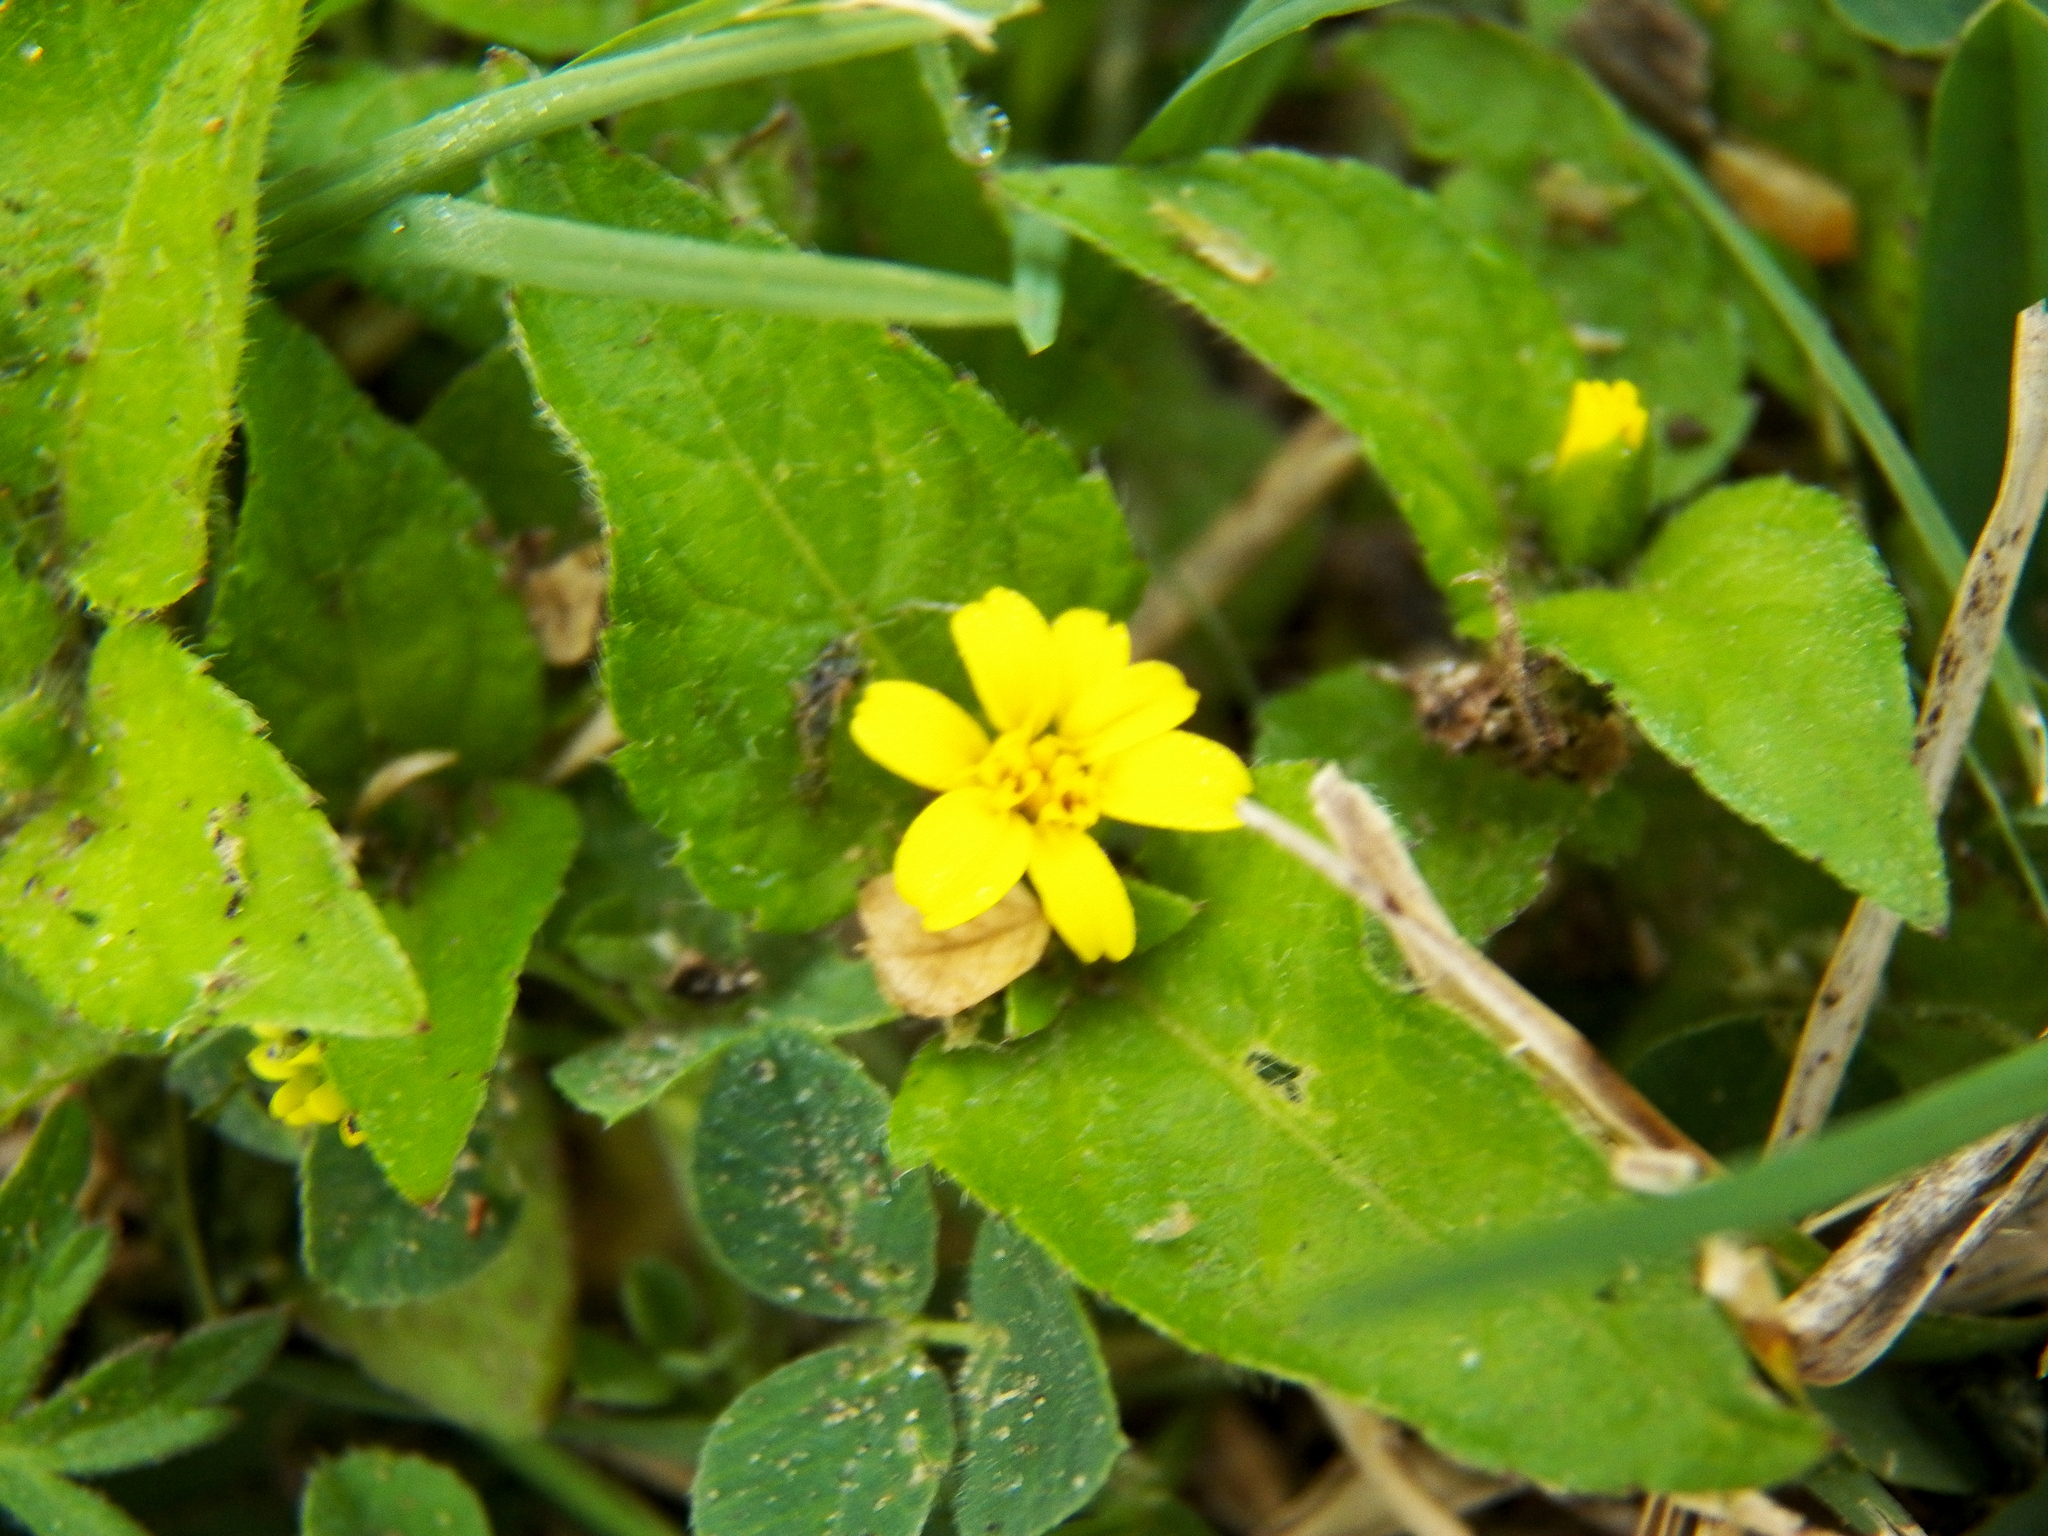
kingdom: Plantae
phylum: Tracheophyta
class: Magnoliopsida
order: Asterales
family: Asteraceae
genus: Calyptocarpus
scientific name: Calyptocarpus vialis
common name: Straggler daisy
